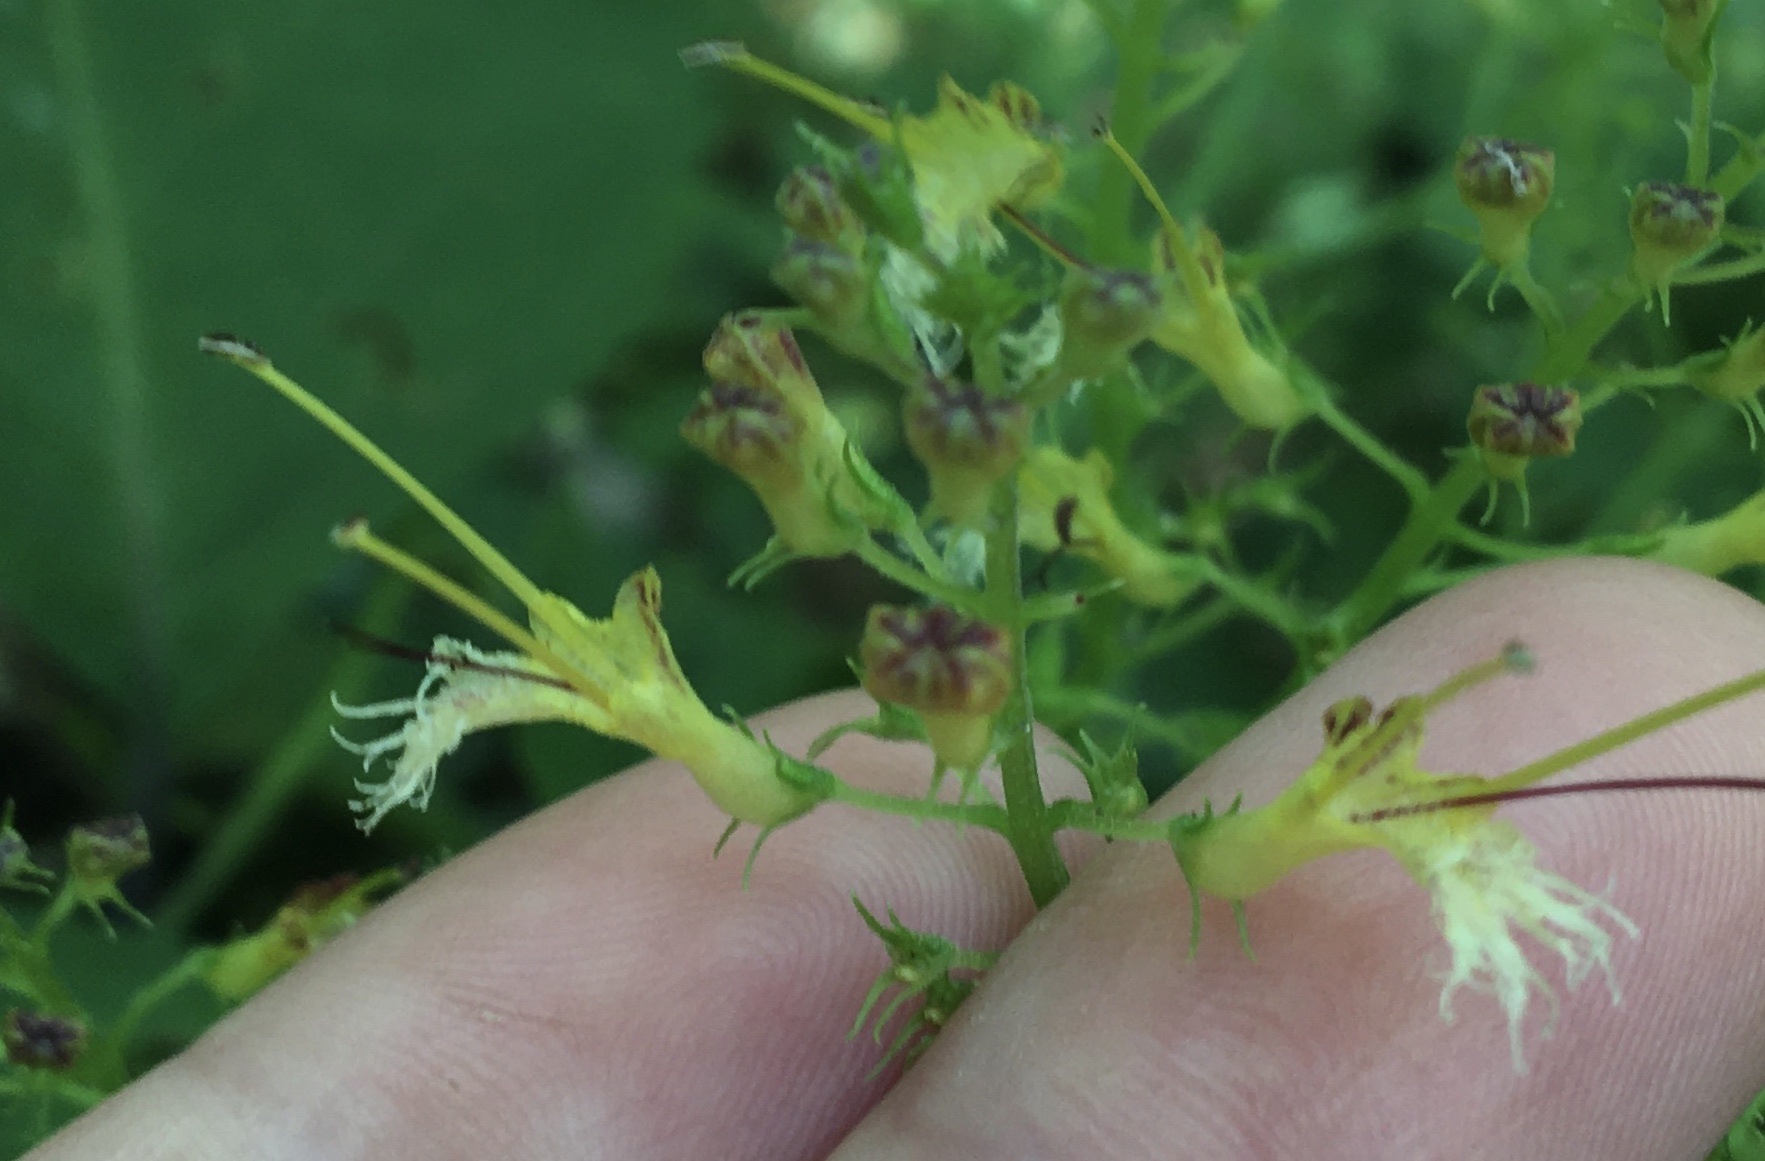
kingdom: Plantae
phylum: Tracheophyta
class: Magnoliopsida
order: Lamiales
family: Lamiaceae
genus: Collinsonia
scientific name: Collinsonia canadensis
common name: Northern horsebalm
